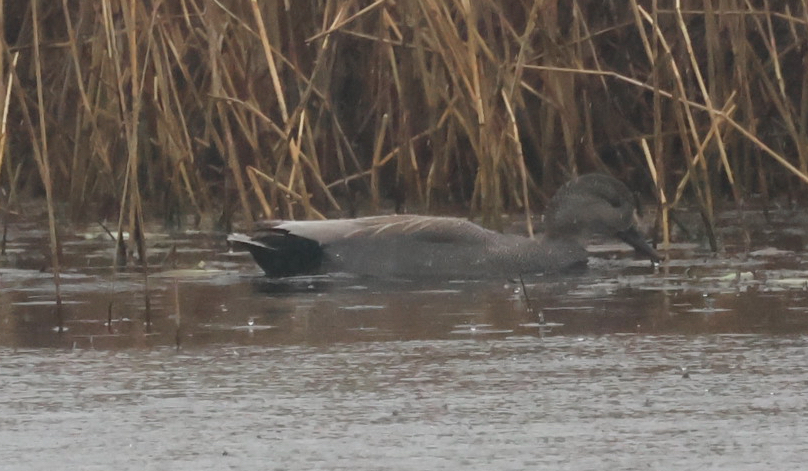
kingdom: Animalia
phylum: Chordata
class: Aves
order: Anseriformes
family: Anatidae
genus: Mareca
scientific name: Mareca strepera
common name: Gadwall
